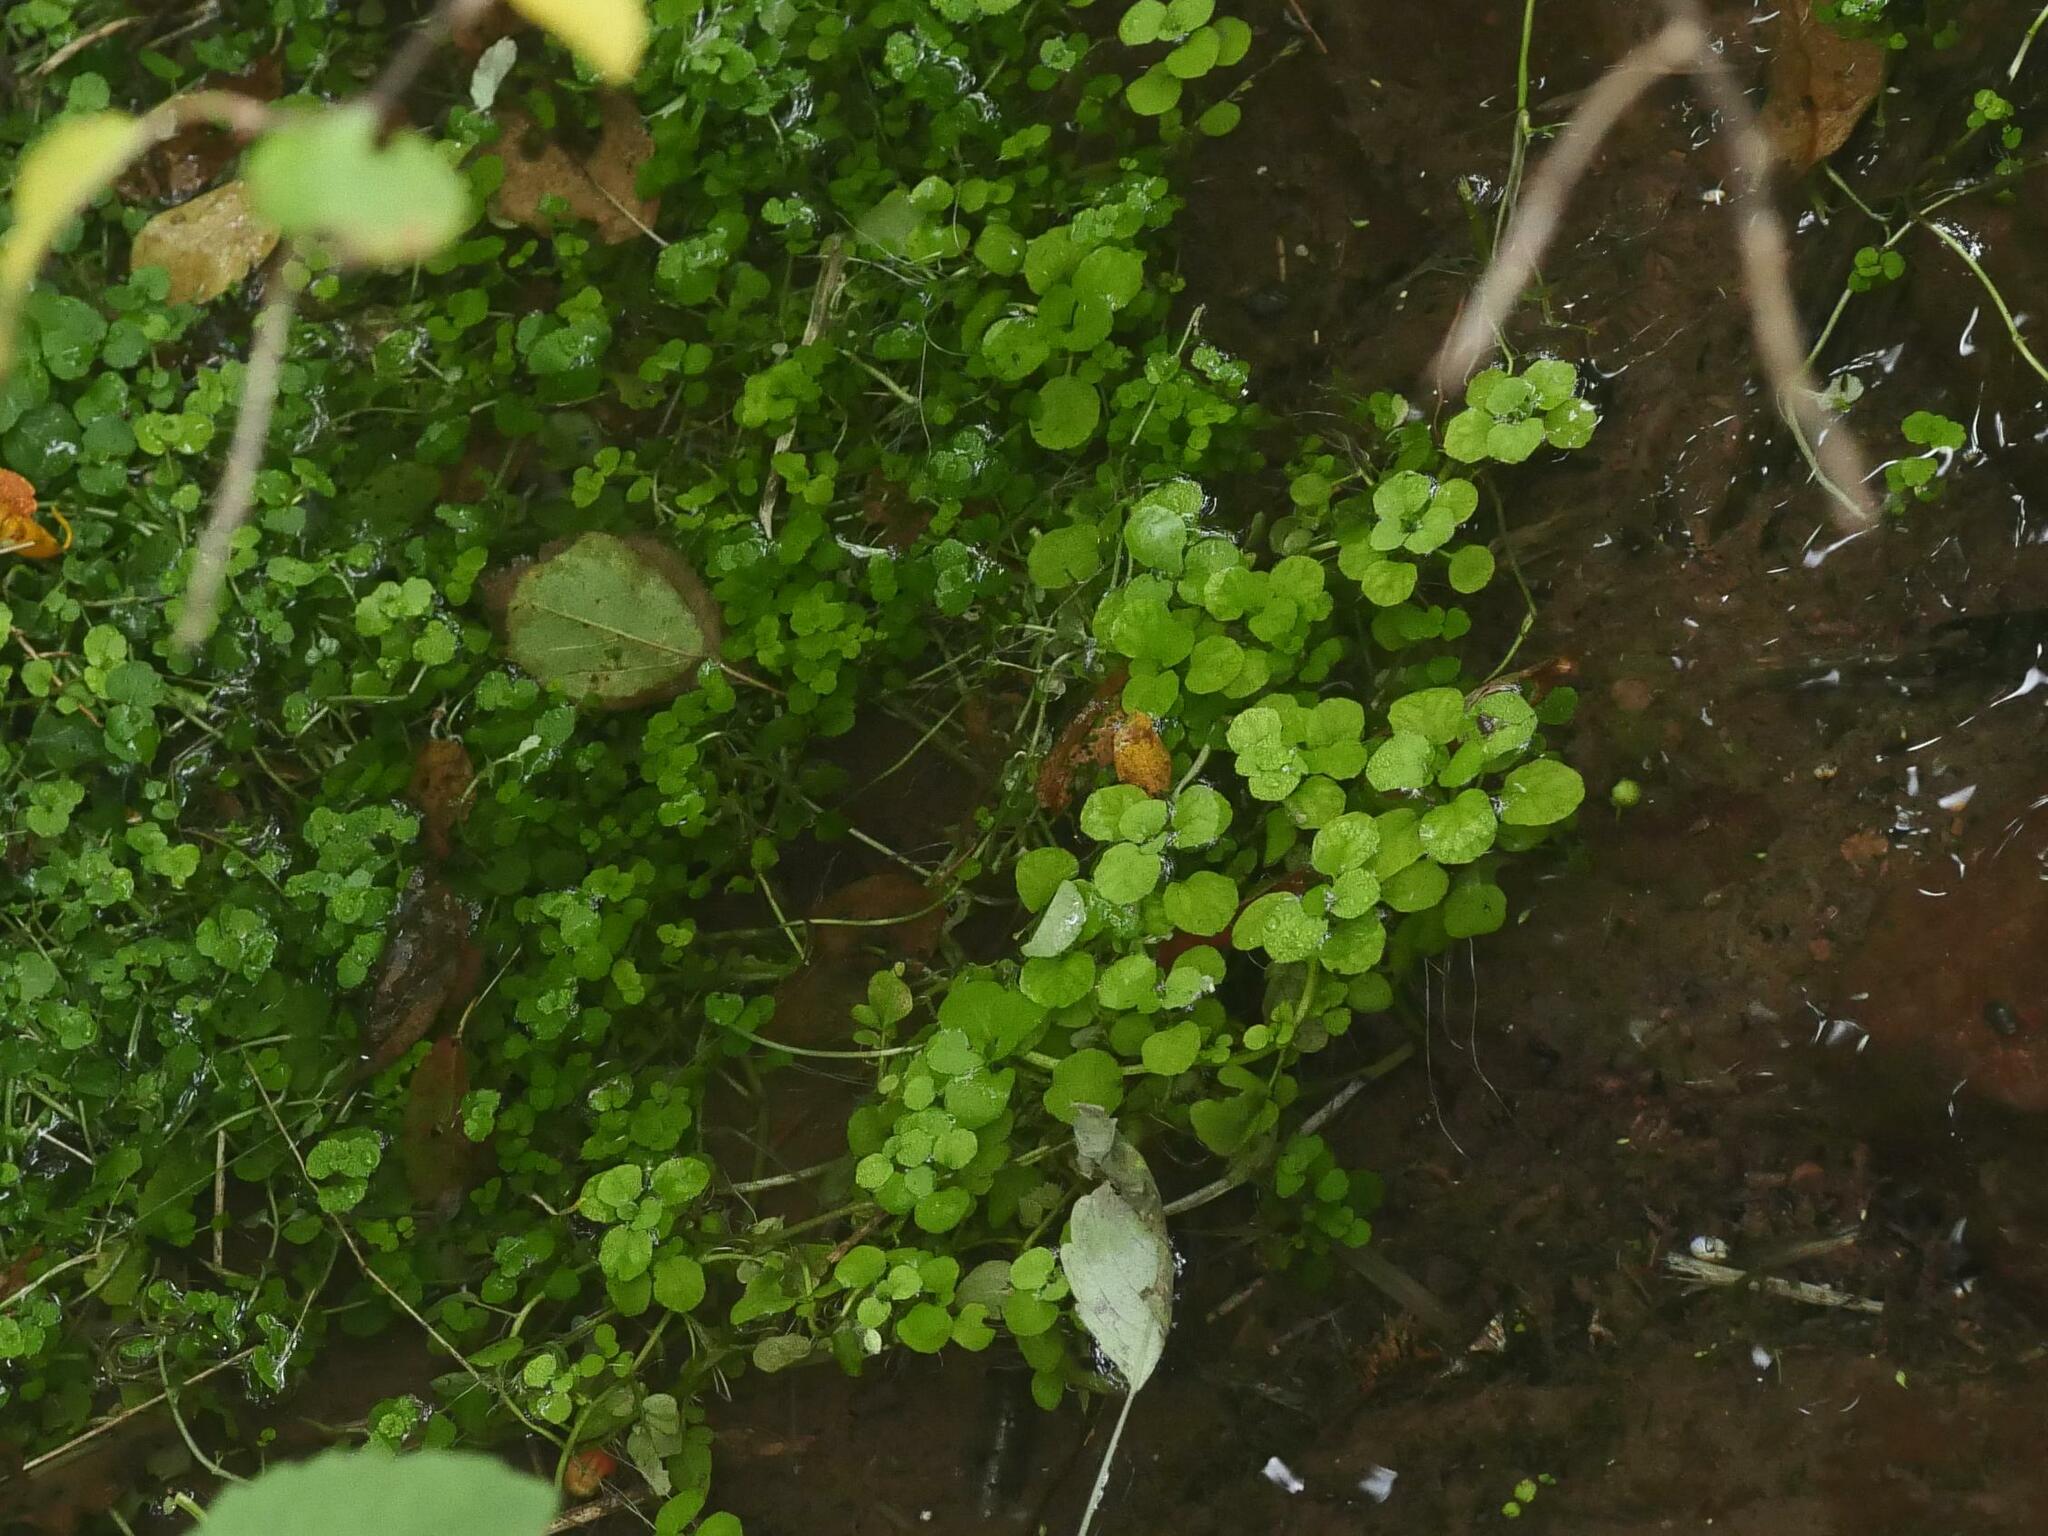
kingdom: Plantae
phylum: Tracheophyta
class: Magnoliopsida
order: Saxifragales
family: Saxifragaceae
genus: Chrysosplenium
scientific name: Chrysosplenium americanum
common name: American golden-saxifrage
